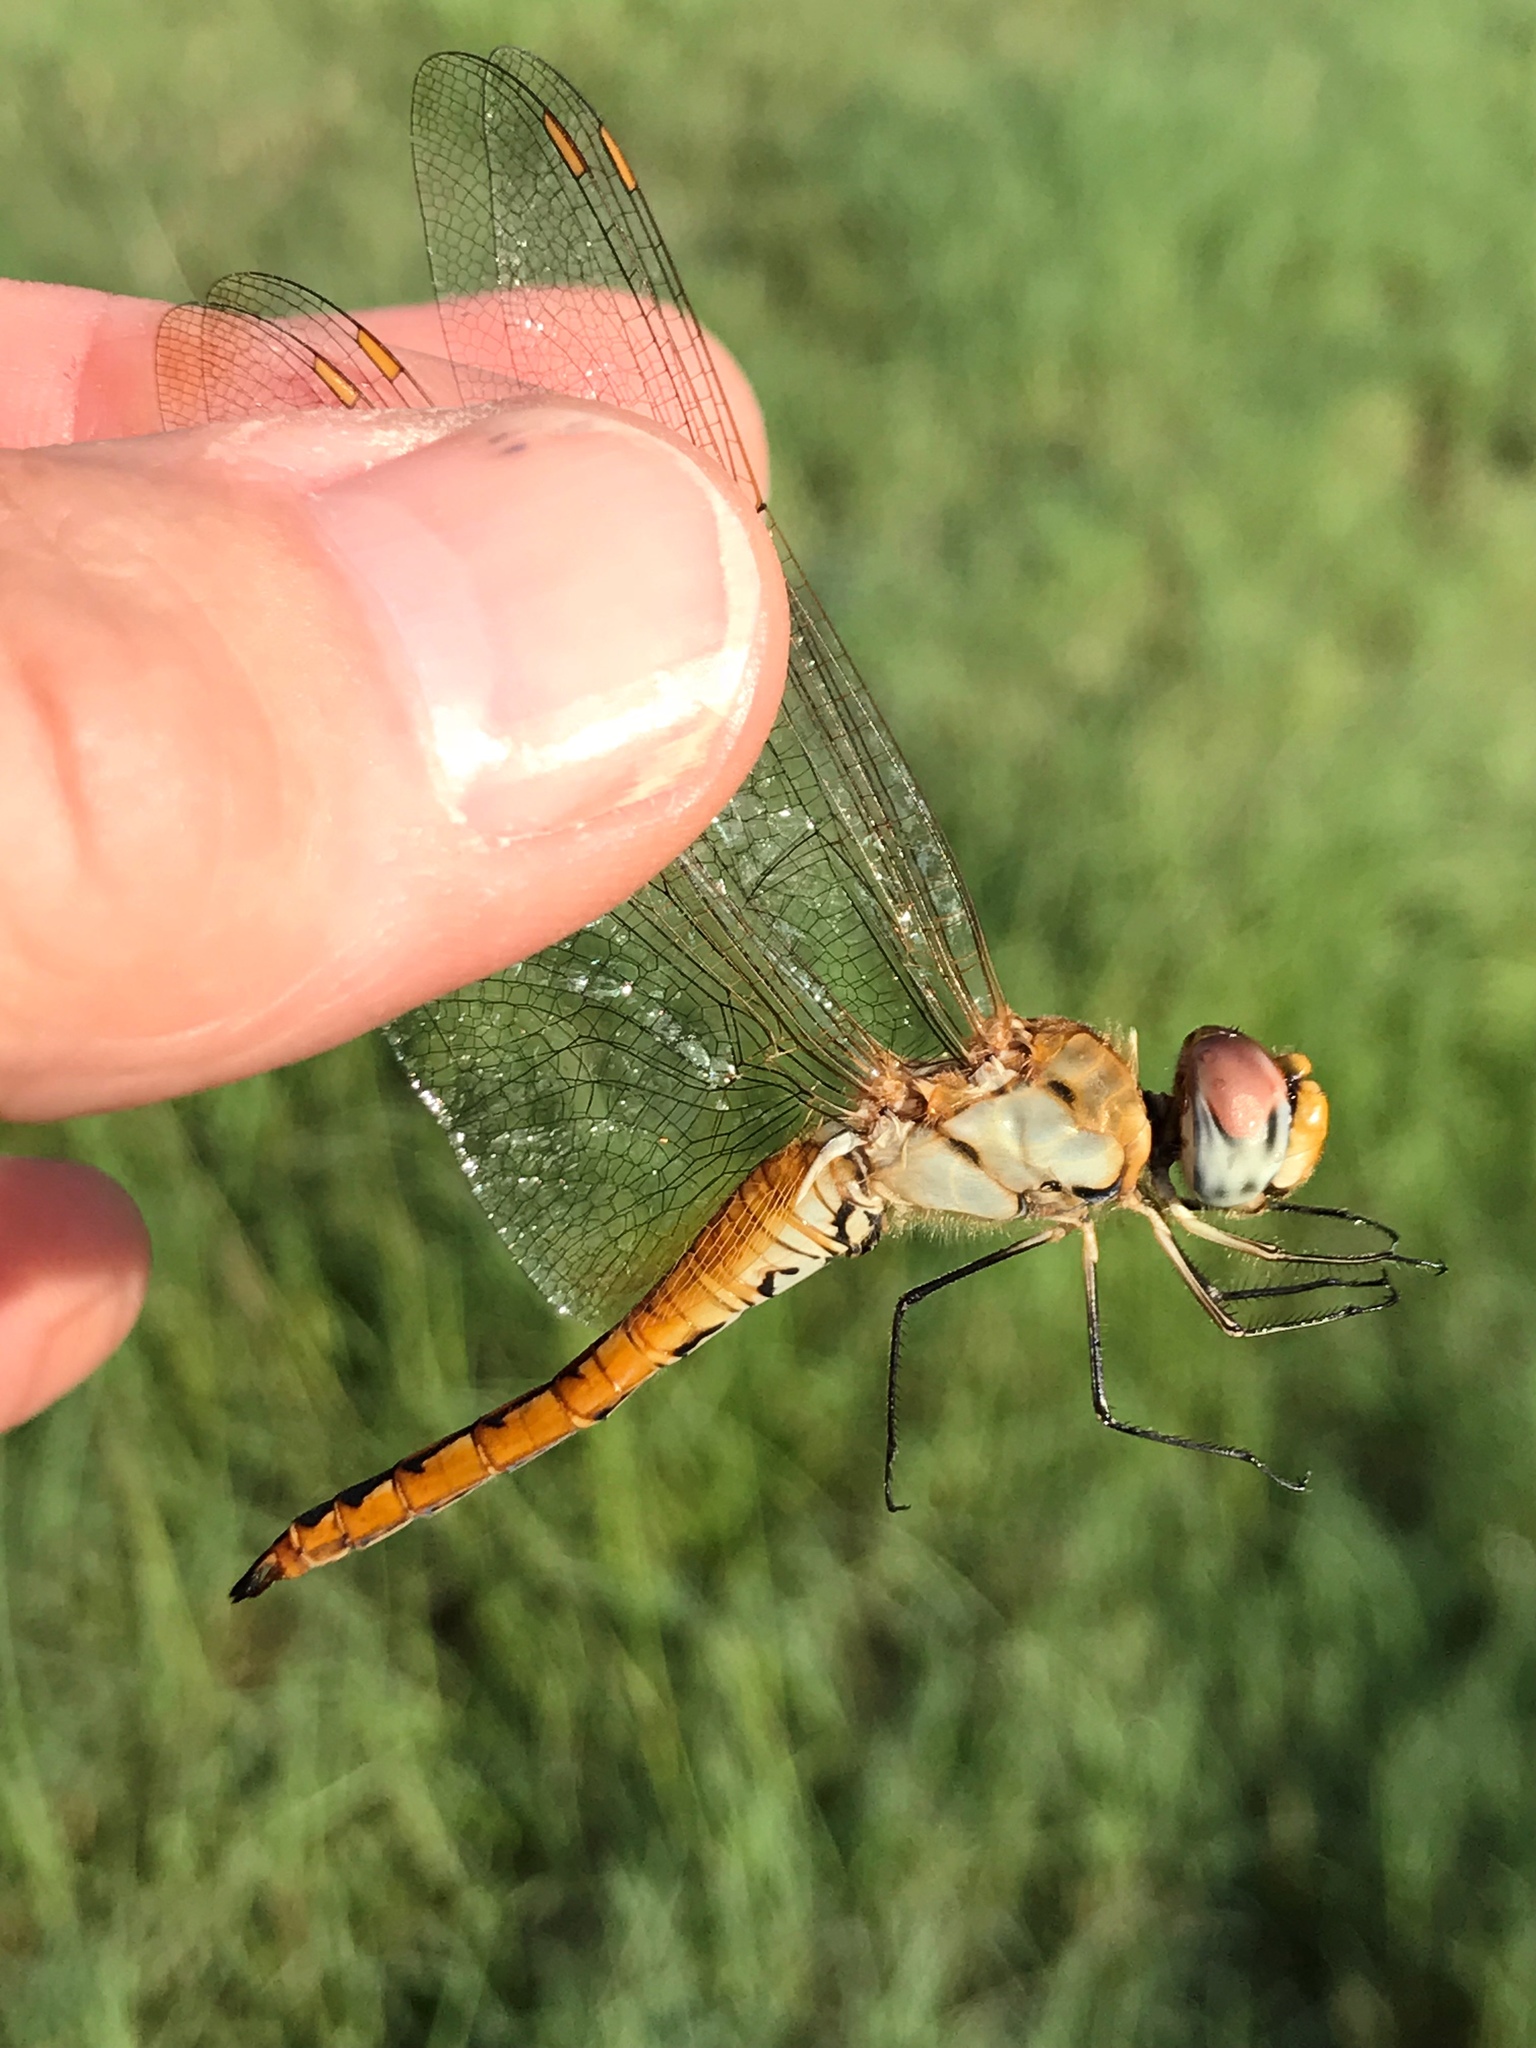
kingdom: Animalia
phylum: Arthropoda
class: Insecta
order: Odonata
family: Libellulidae
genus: Pantala
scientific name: Pantala flavescens
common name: Wandering glider
